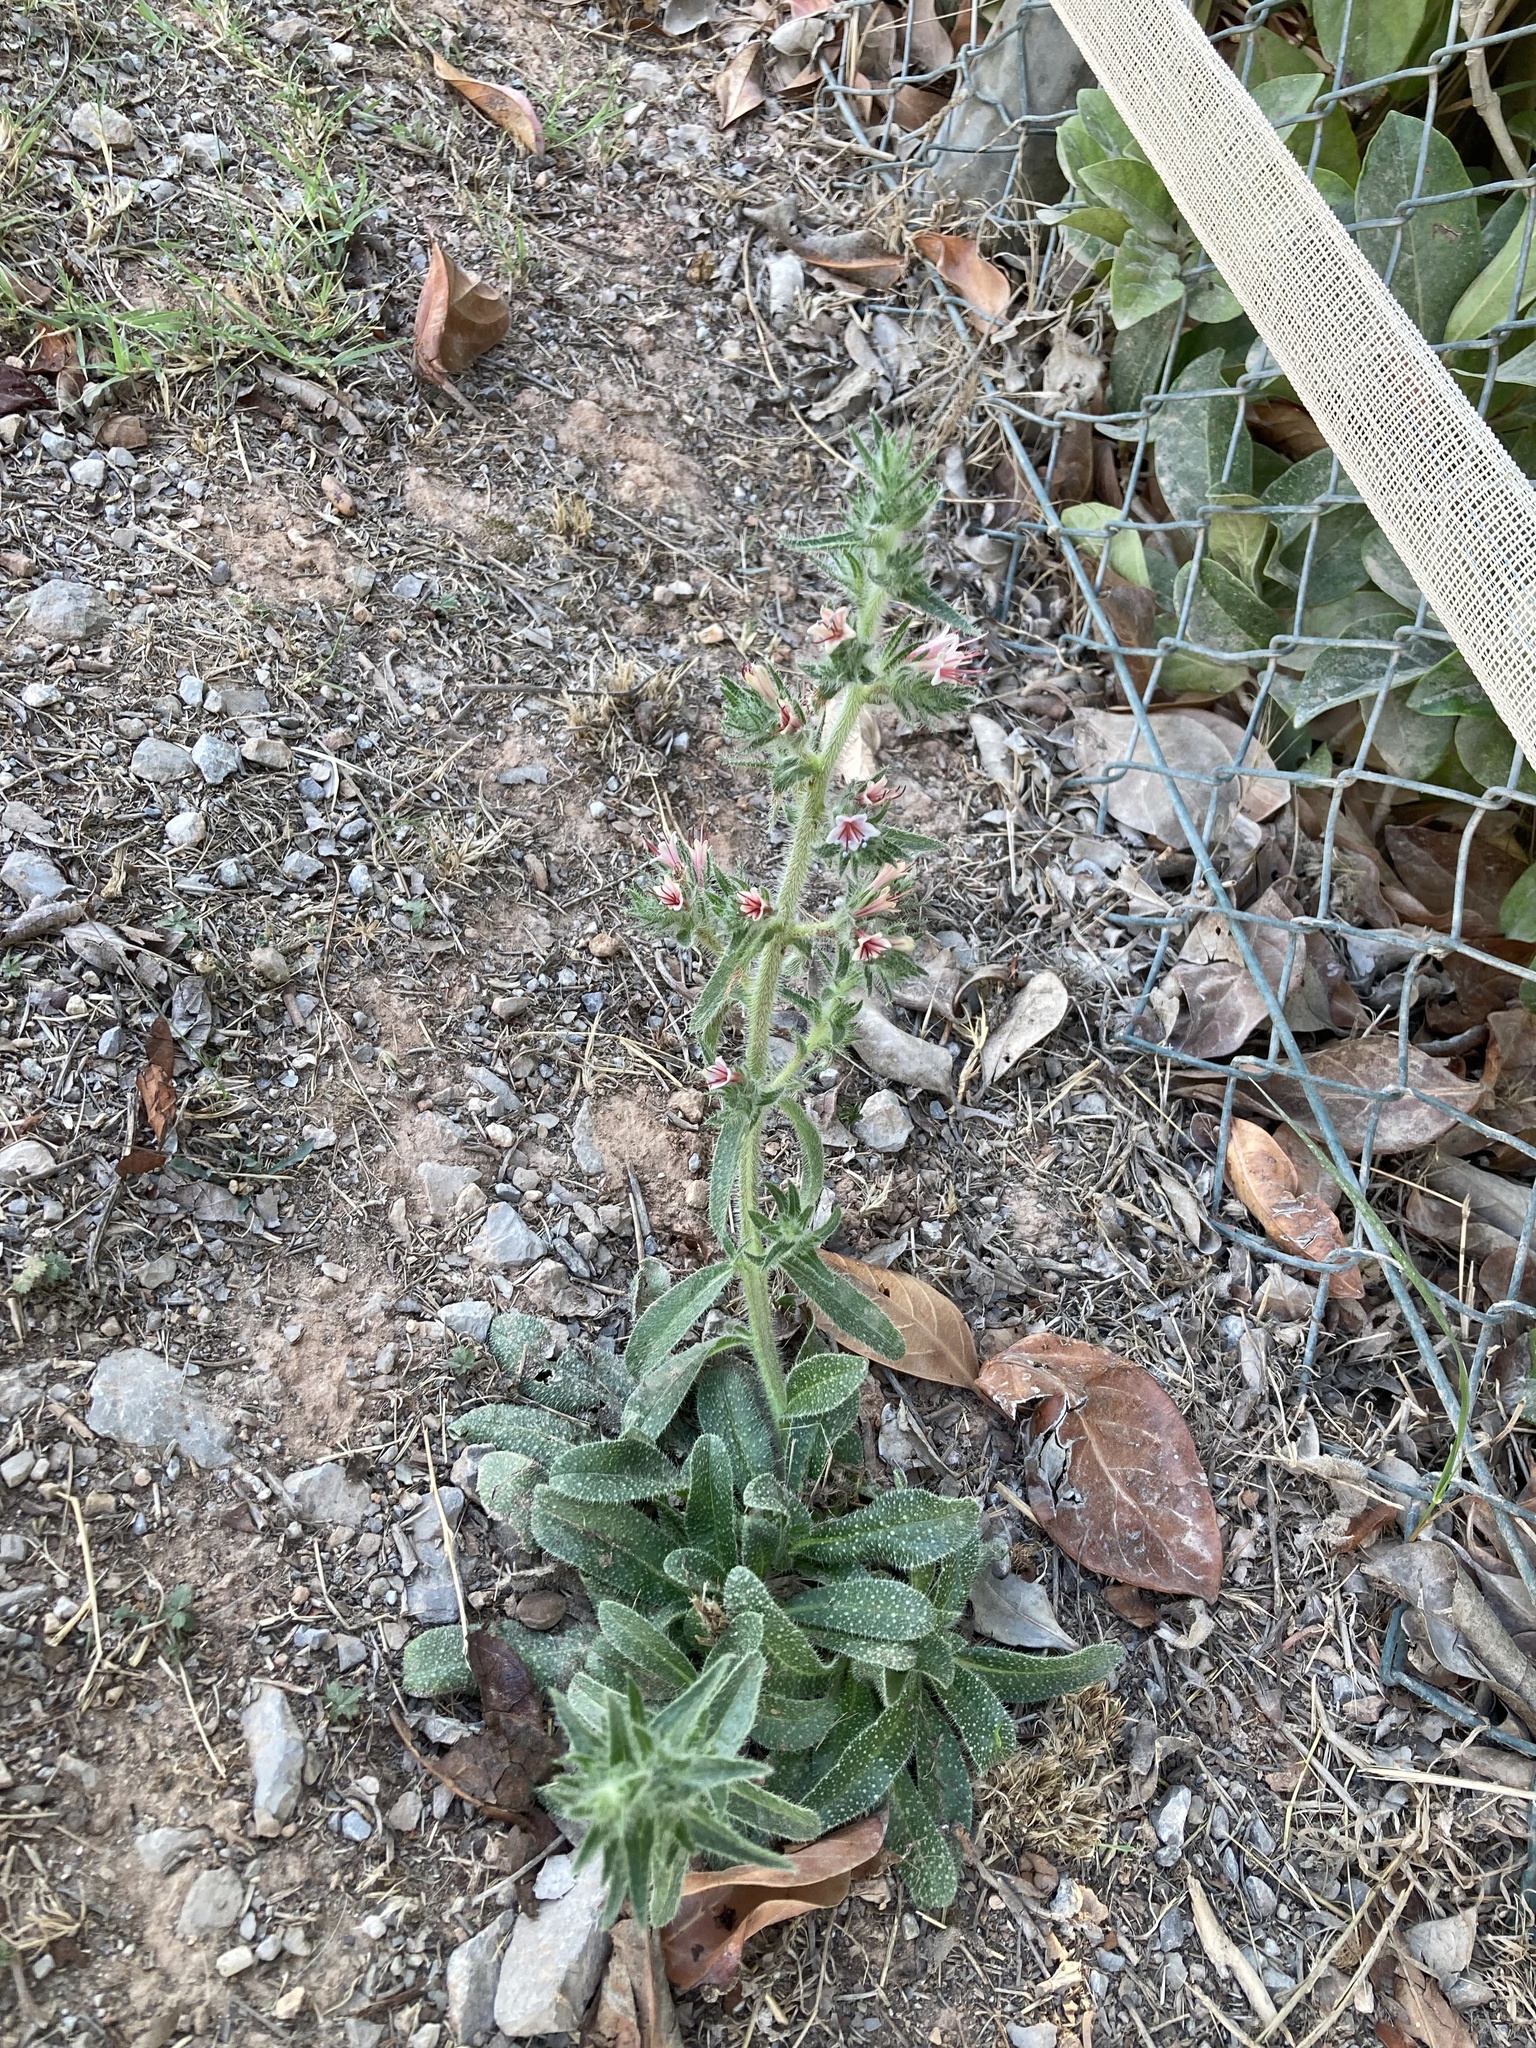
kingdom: Plantae
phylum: Tracheophyta
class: Magnoliopsida
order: Boraginales
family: Boraginaceae
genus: Echium
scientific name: Echium asperrimum
